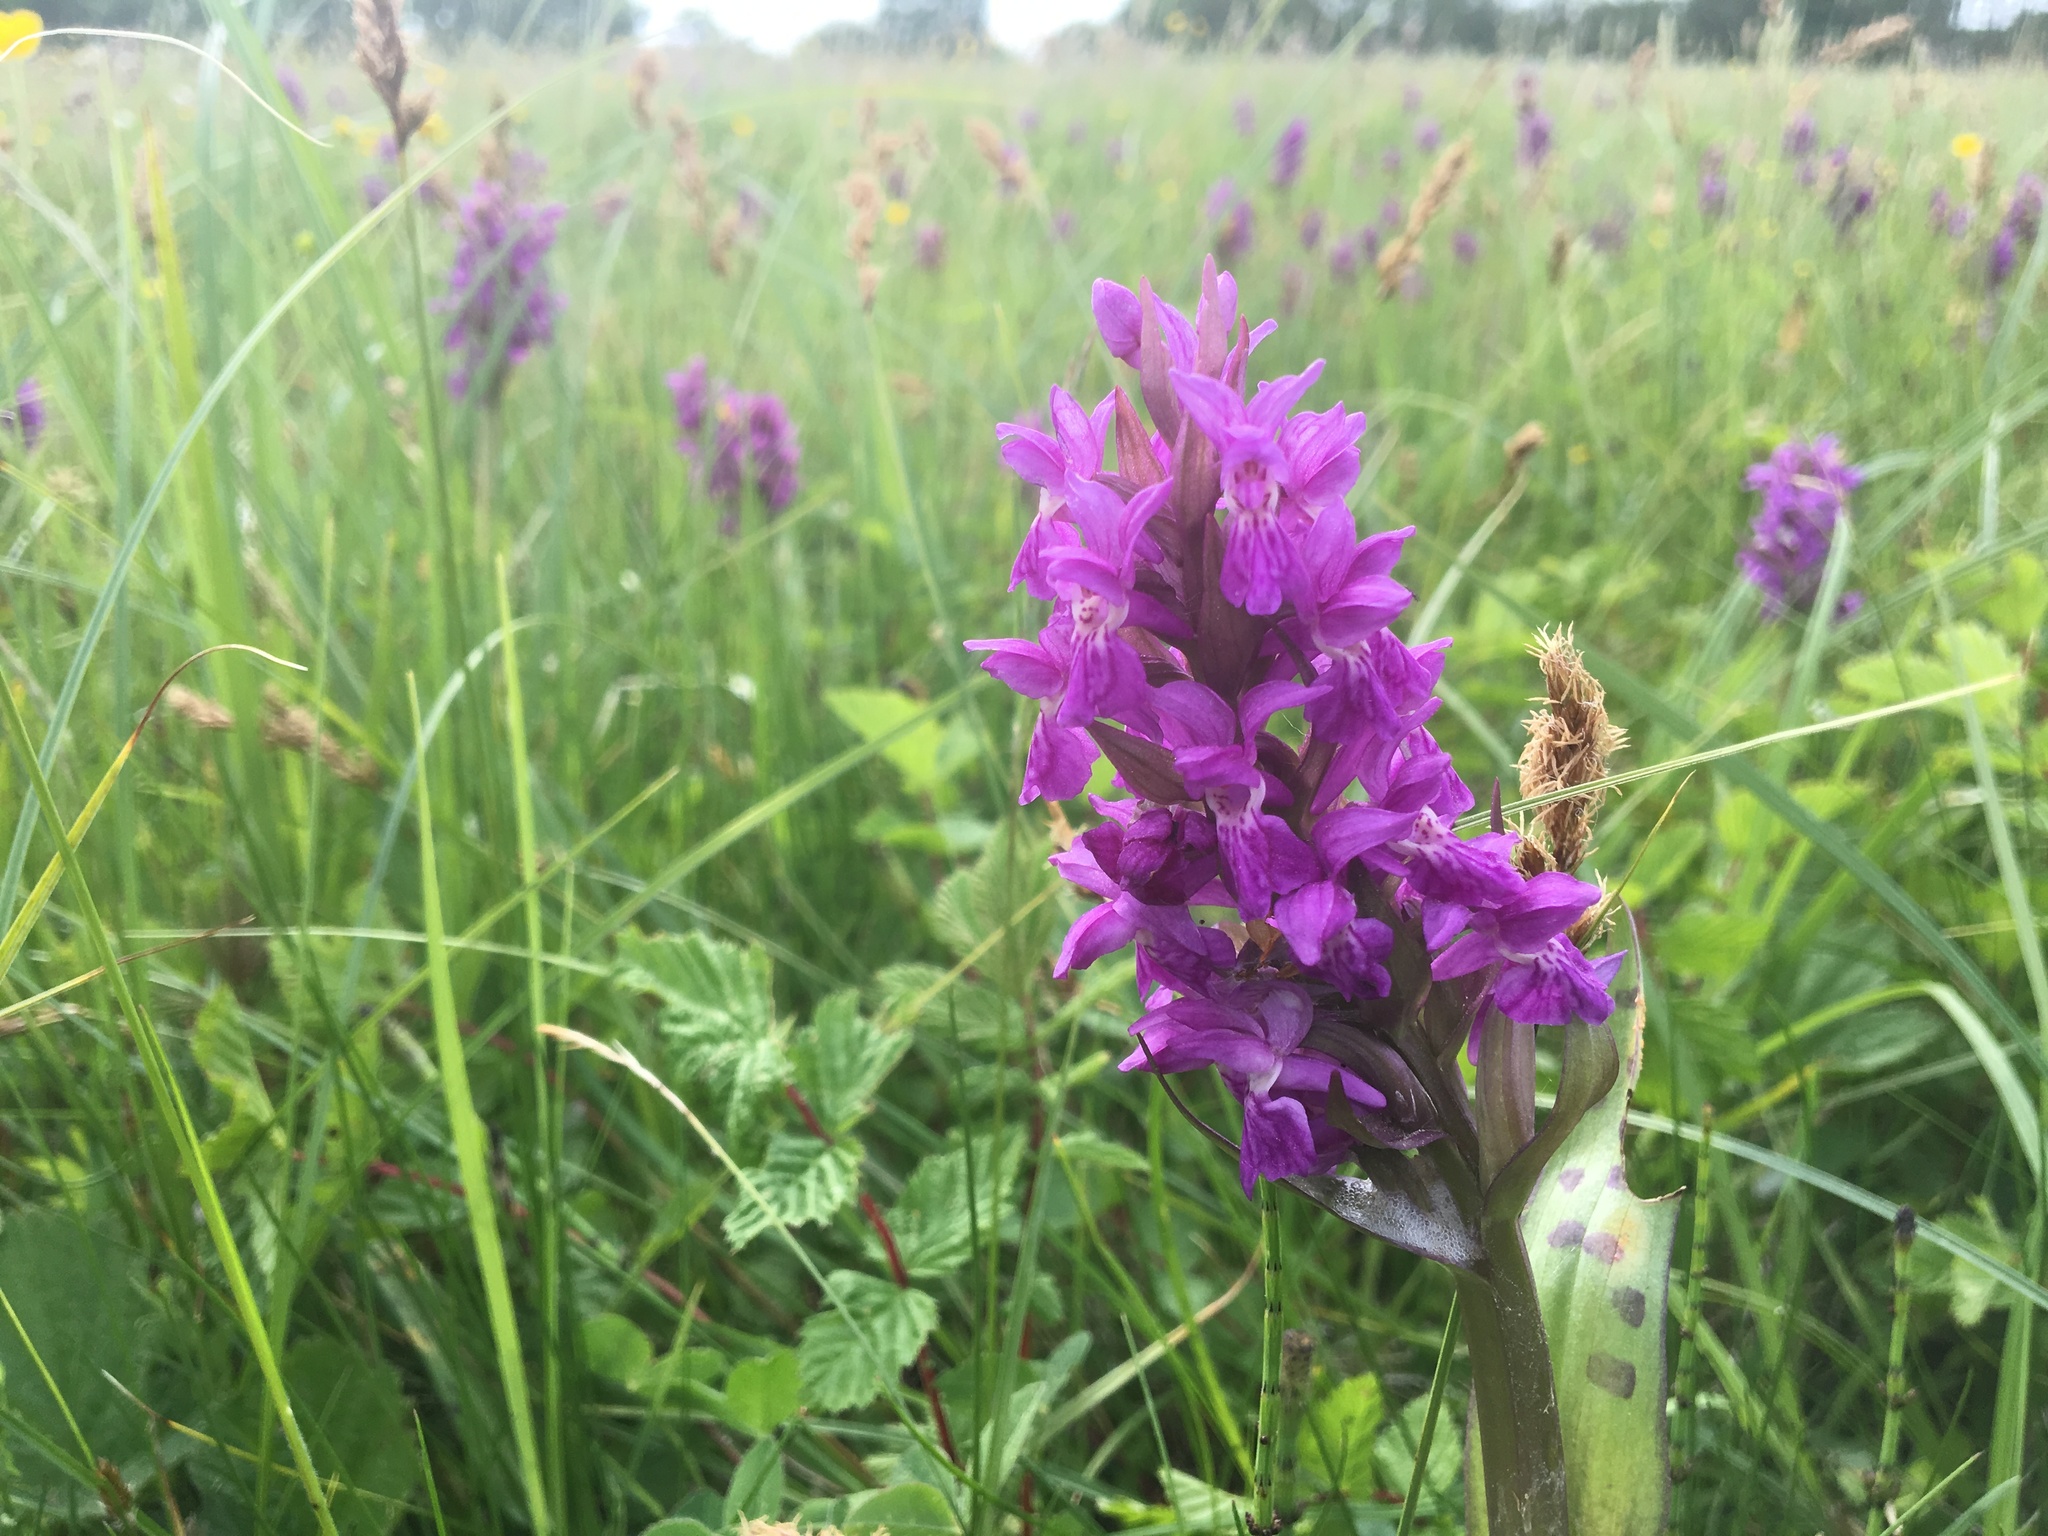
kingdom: Plantae
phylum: Tracheophyta
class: Liliopsida
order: Asparagales
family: Orchidaceae
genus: Dactylorhiza
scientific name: Dactylorhiza majalis
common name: Marsh orchid
